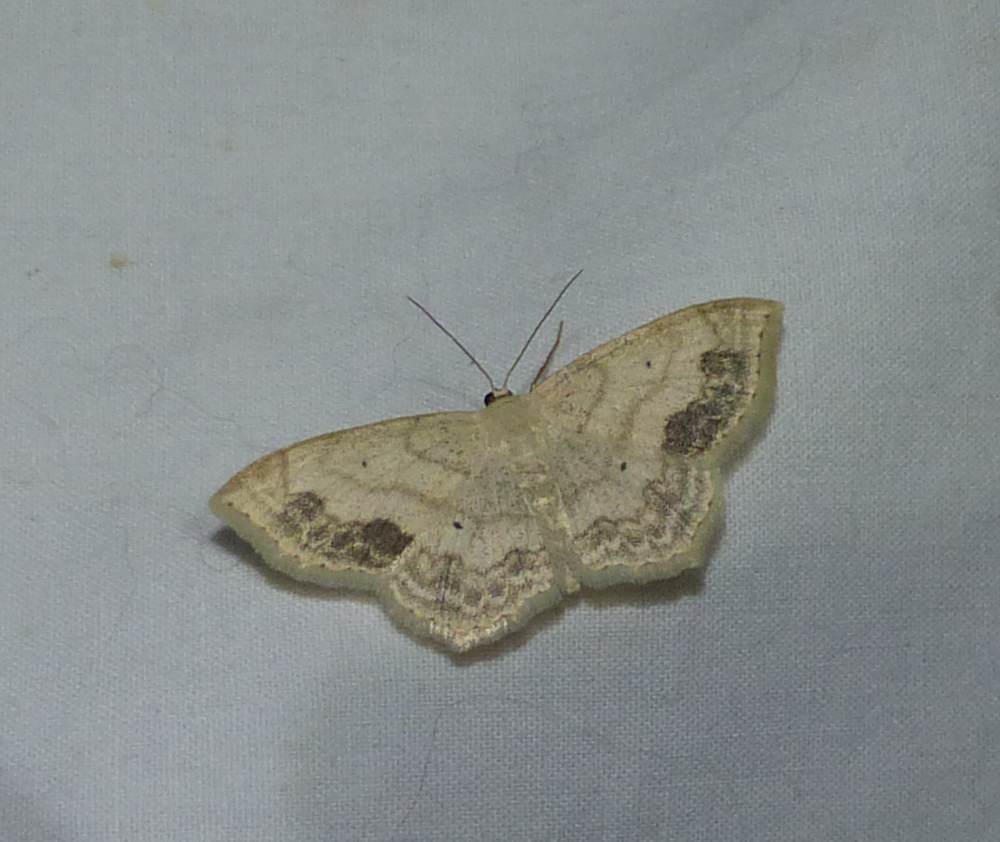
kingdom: Animalia
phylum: Arthropoda
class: Insecta
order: Lepidoptera
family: Geometridae
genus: Scopula
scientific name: Scopula limboundata
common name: Large lace border
